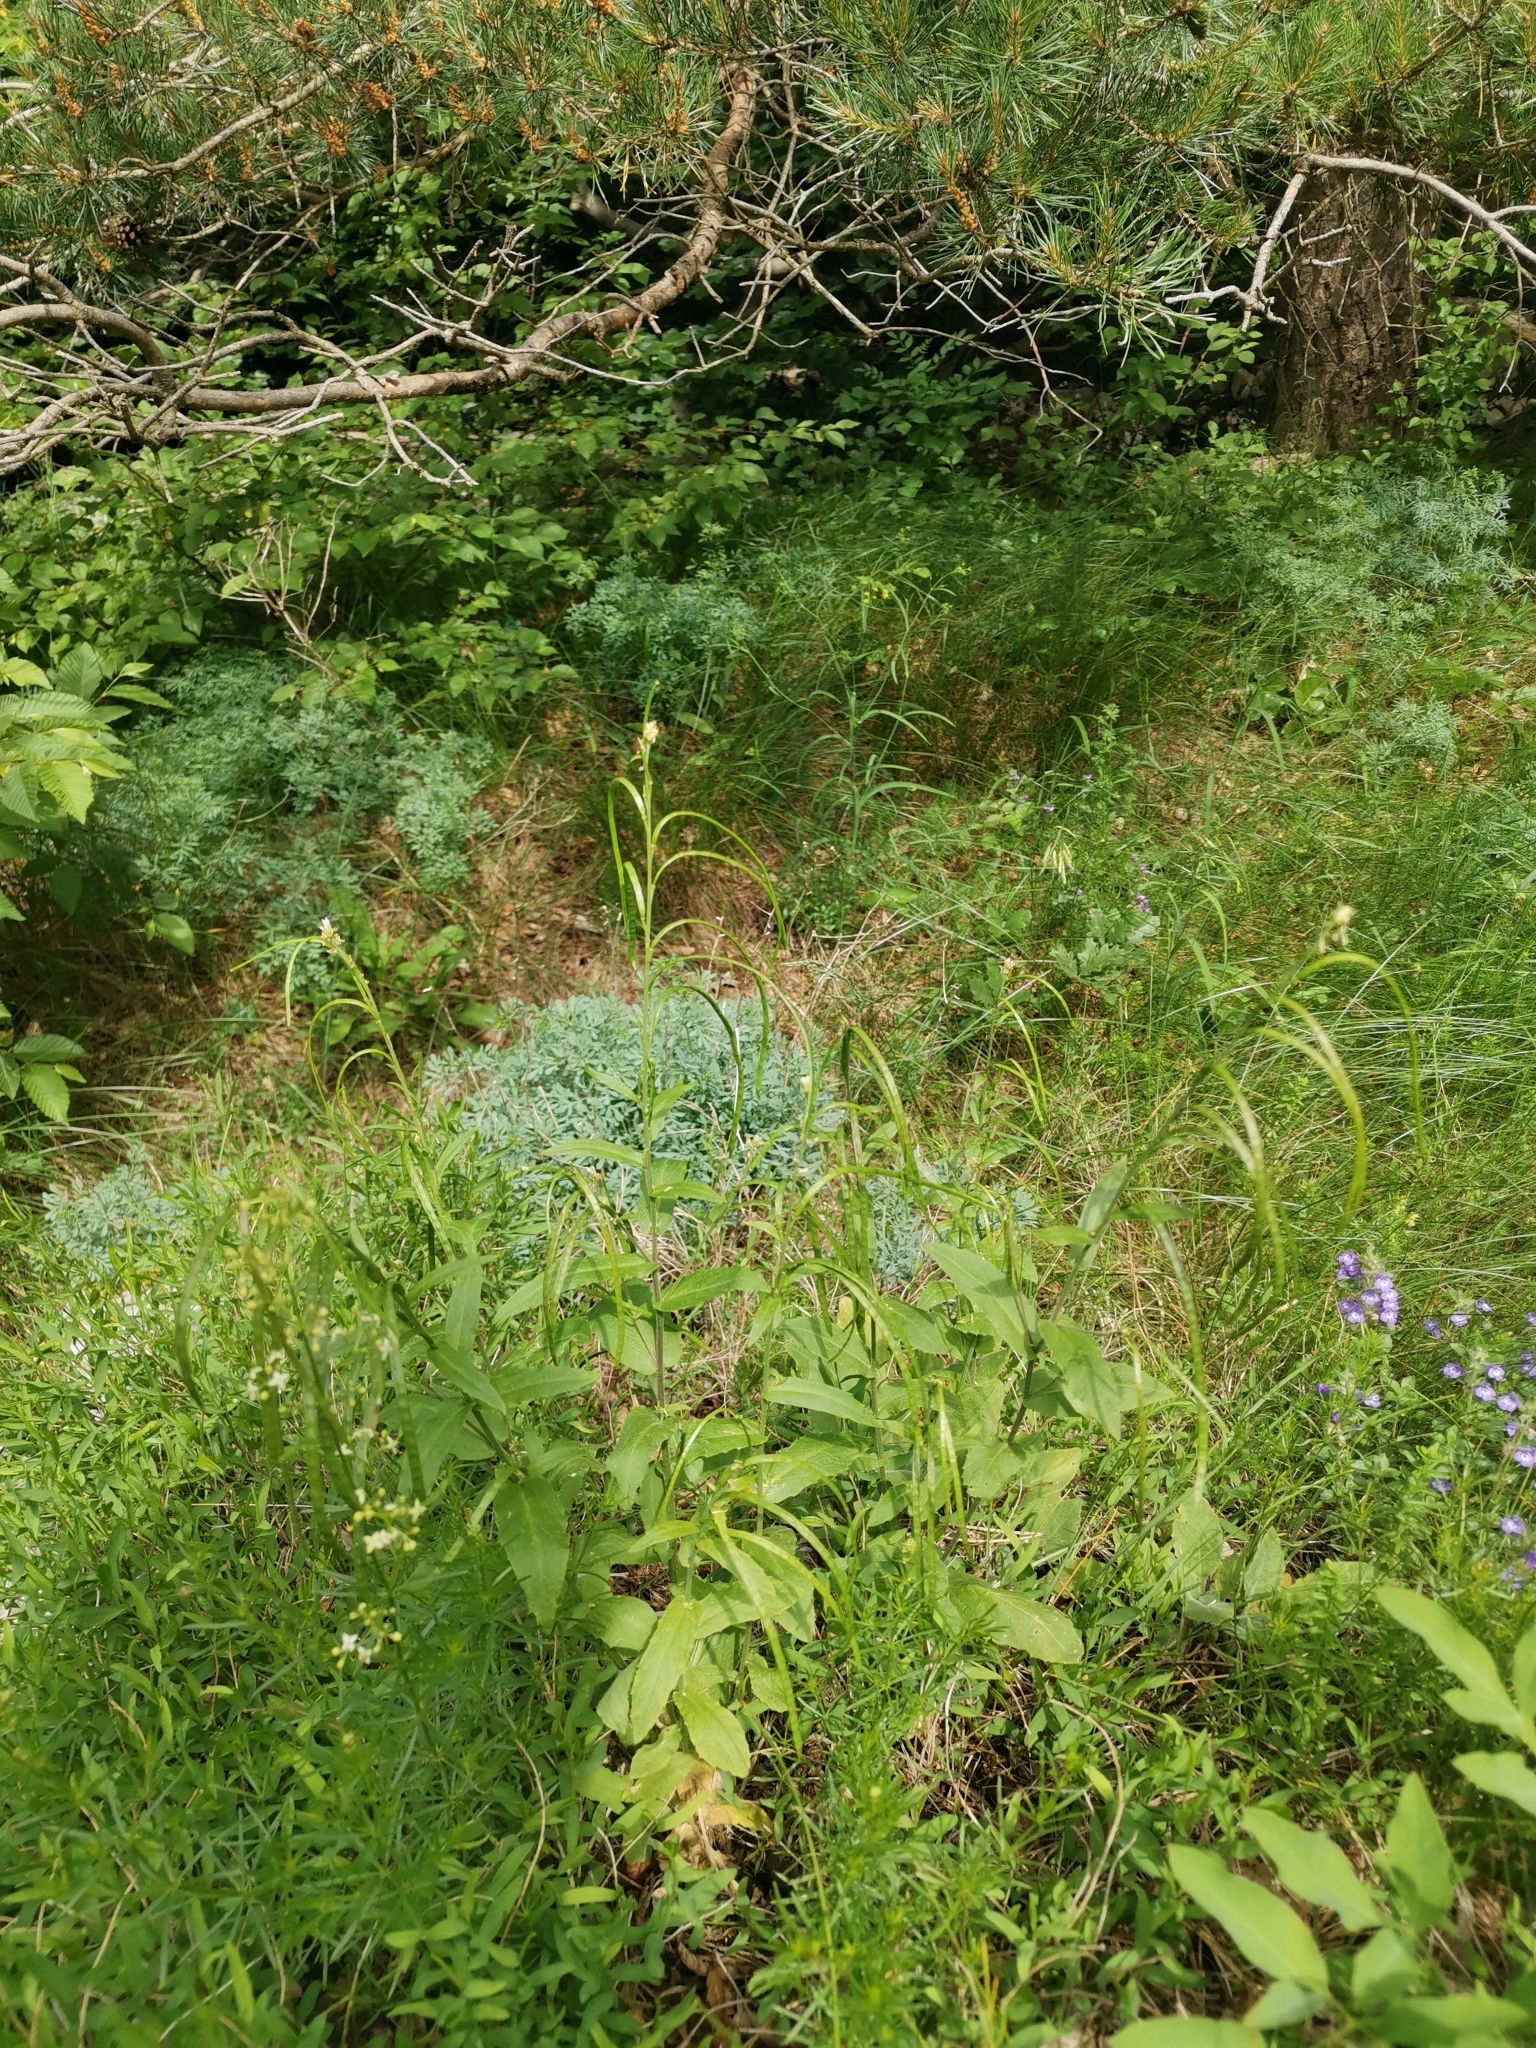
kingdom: Plantae
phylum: Tracheophyta
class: Magnoliopsida
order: Brassicales
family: Brassicaceae
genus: Pseudoturritis
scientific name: Pseudoturritis turrita
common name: Tower cress
